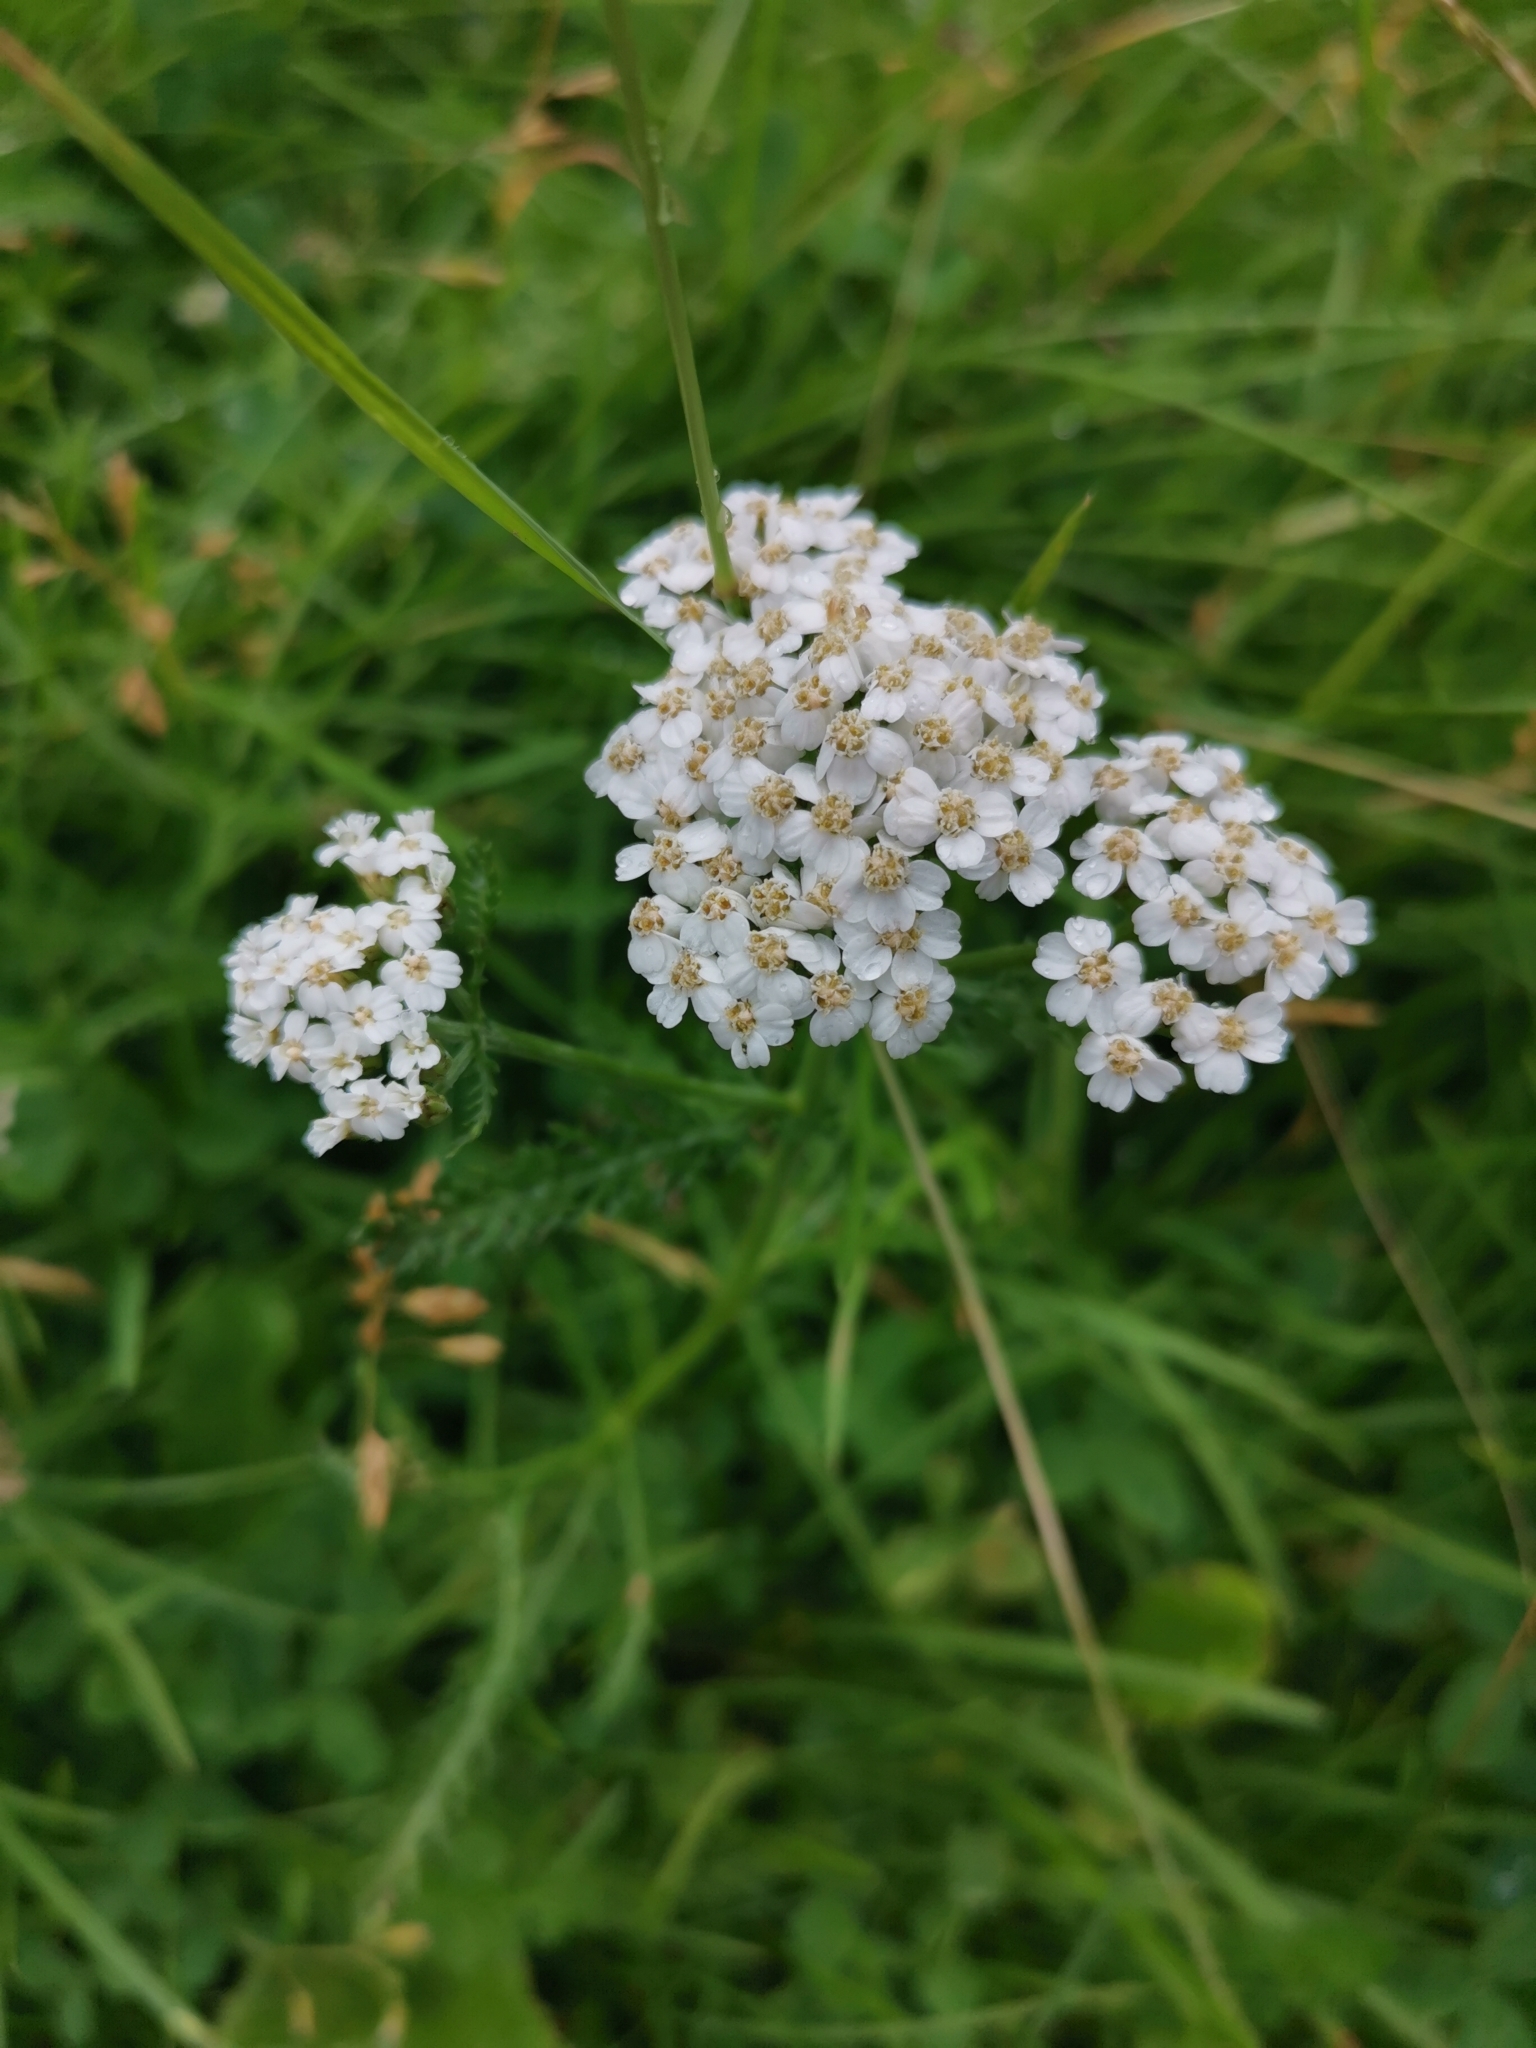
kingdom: Plantae
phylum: Tracheophyta
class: Magnoliopsida
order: Asterales
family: Asteraceae
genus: Achillea
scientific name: Achillea millefolium
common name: Yarrow
